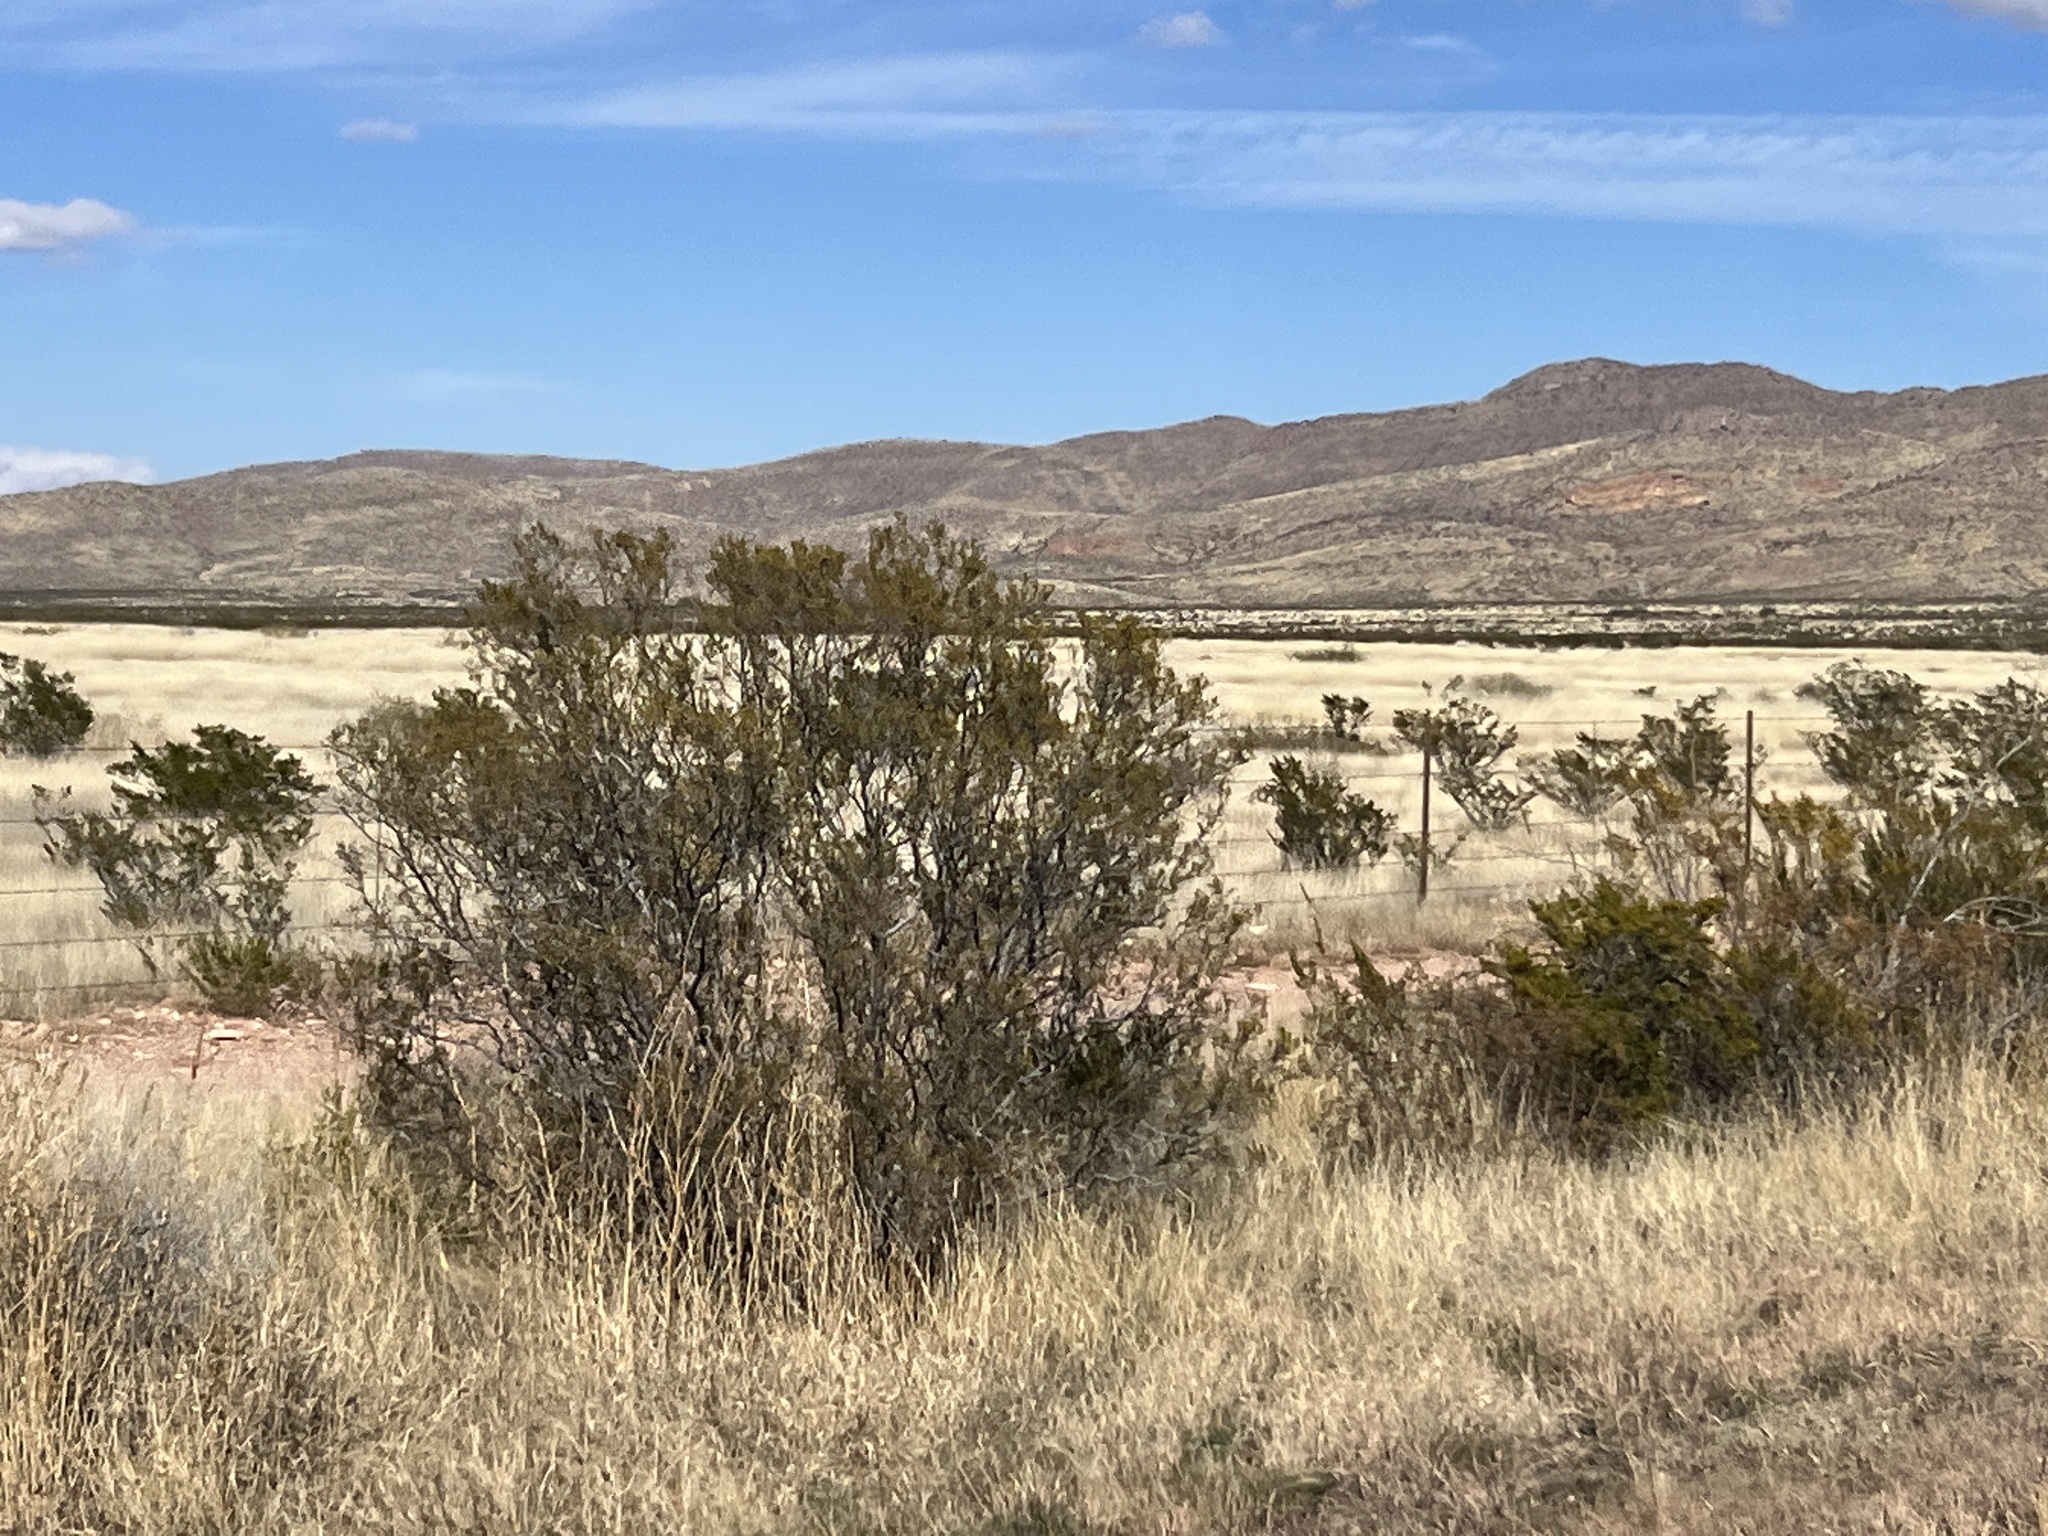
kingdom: Plantae
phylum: Tracheophyta
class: Magnoliopsida
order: Zygophyllales
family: Zygophyllaceae
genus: Larrea
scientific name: Larrea tridentata
